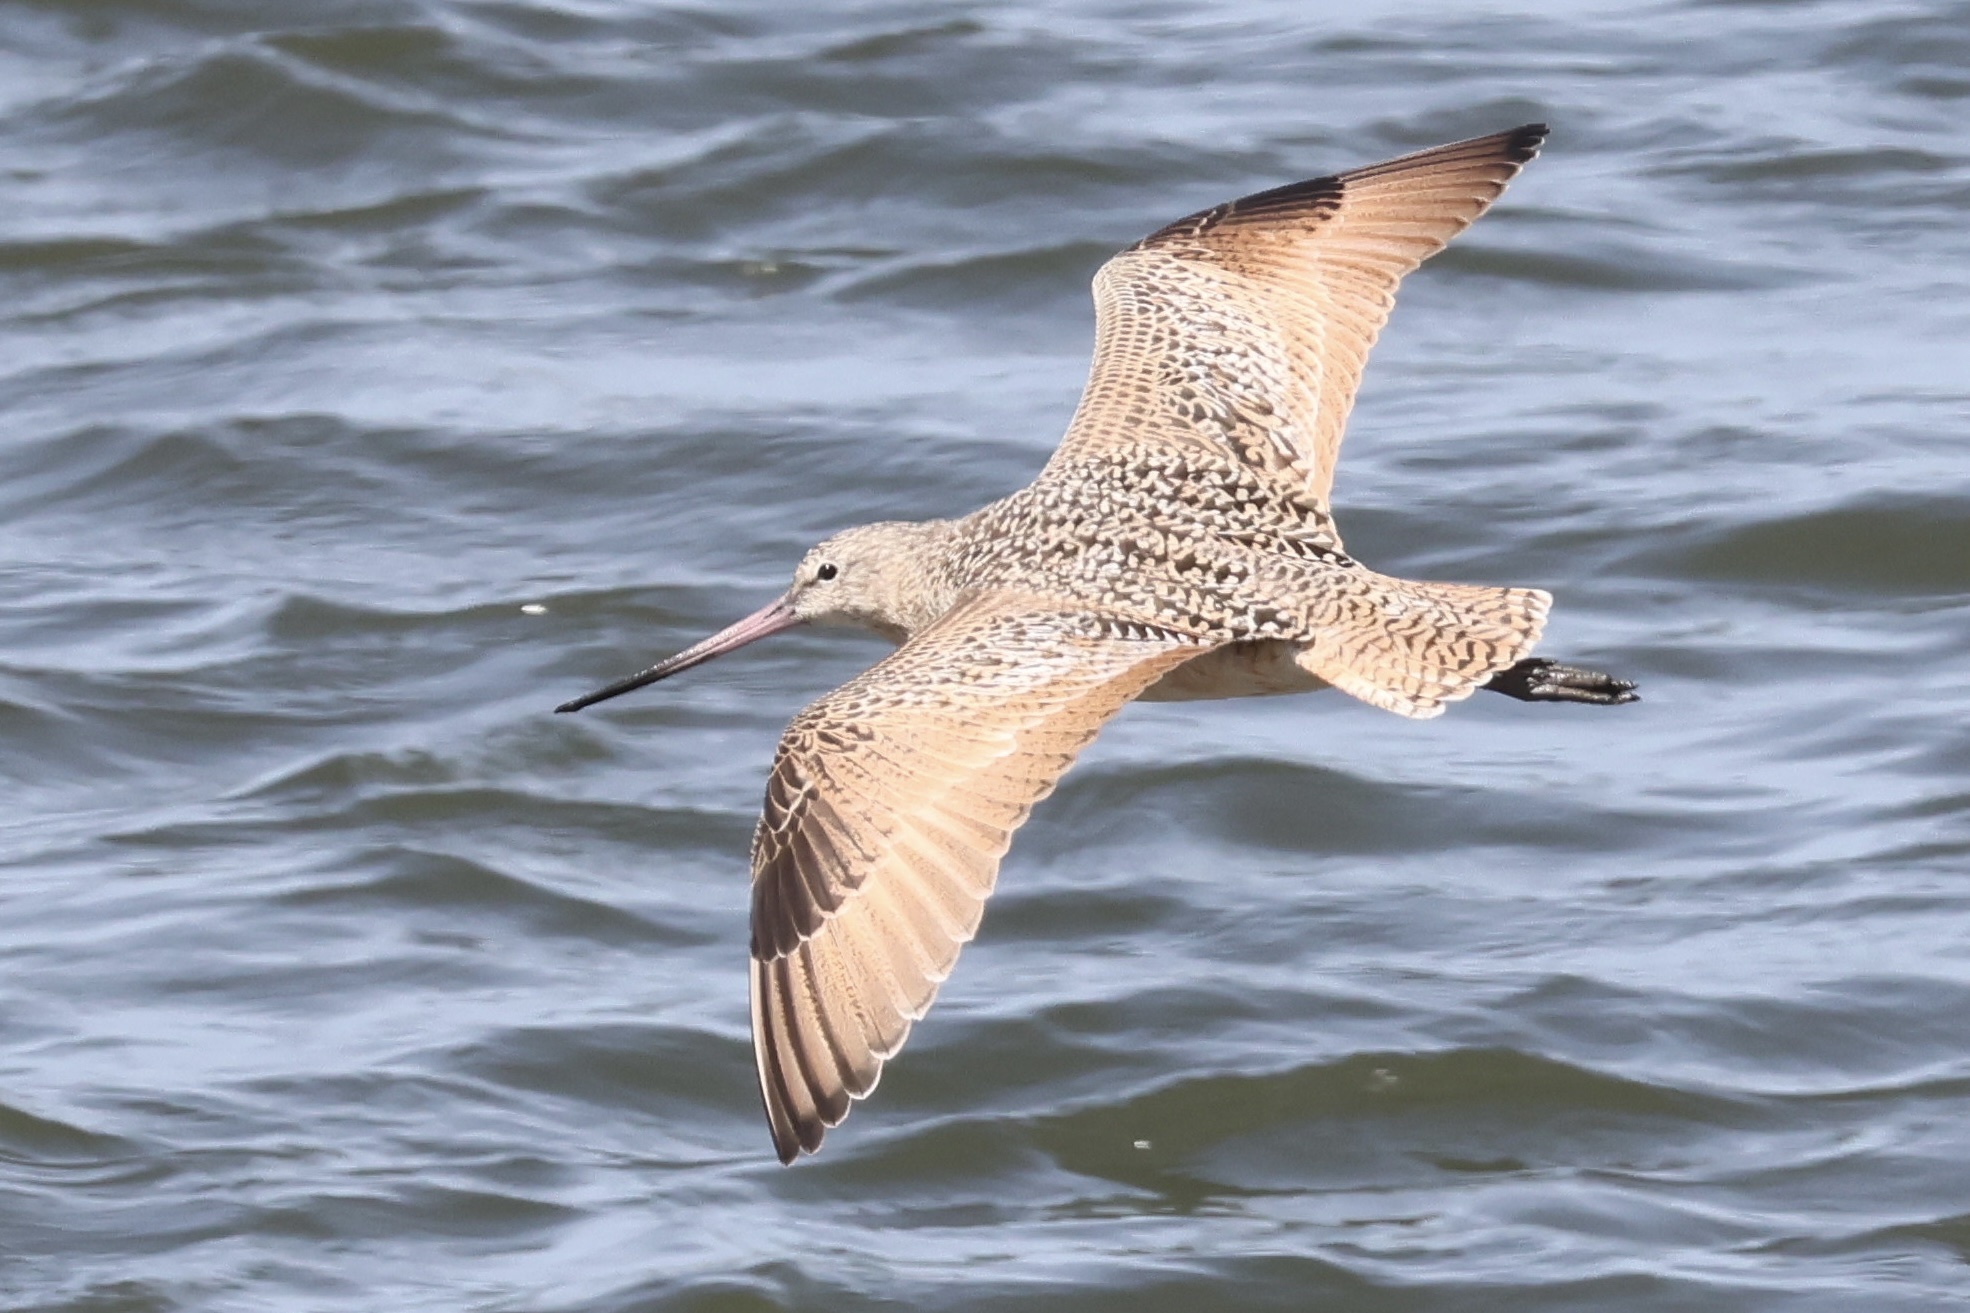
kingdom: Animalia
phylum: Chordata
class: Aves
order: Charadriiformes
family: Scolopacidae
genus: Limosa
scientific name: Limosa fedoa
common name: Marbled godwit
